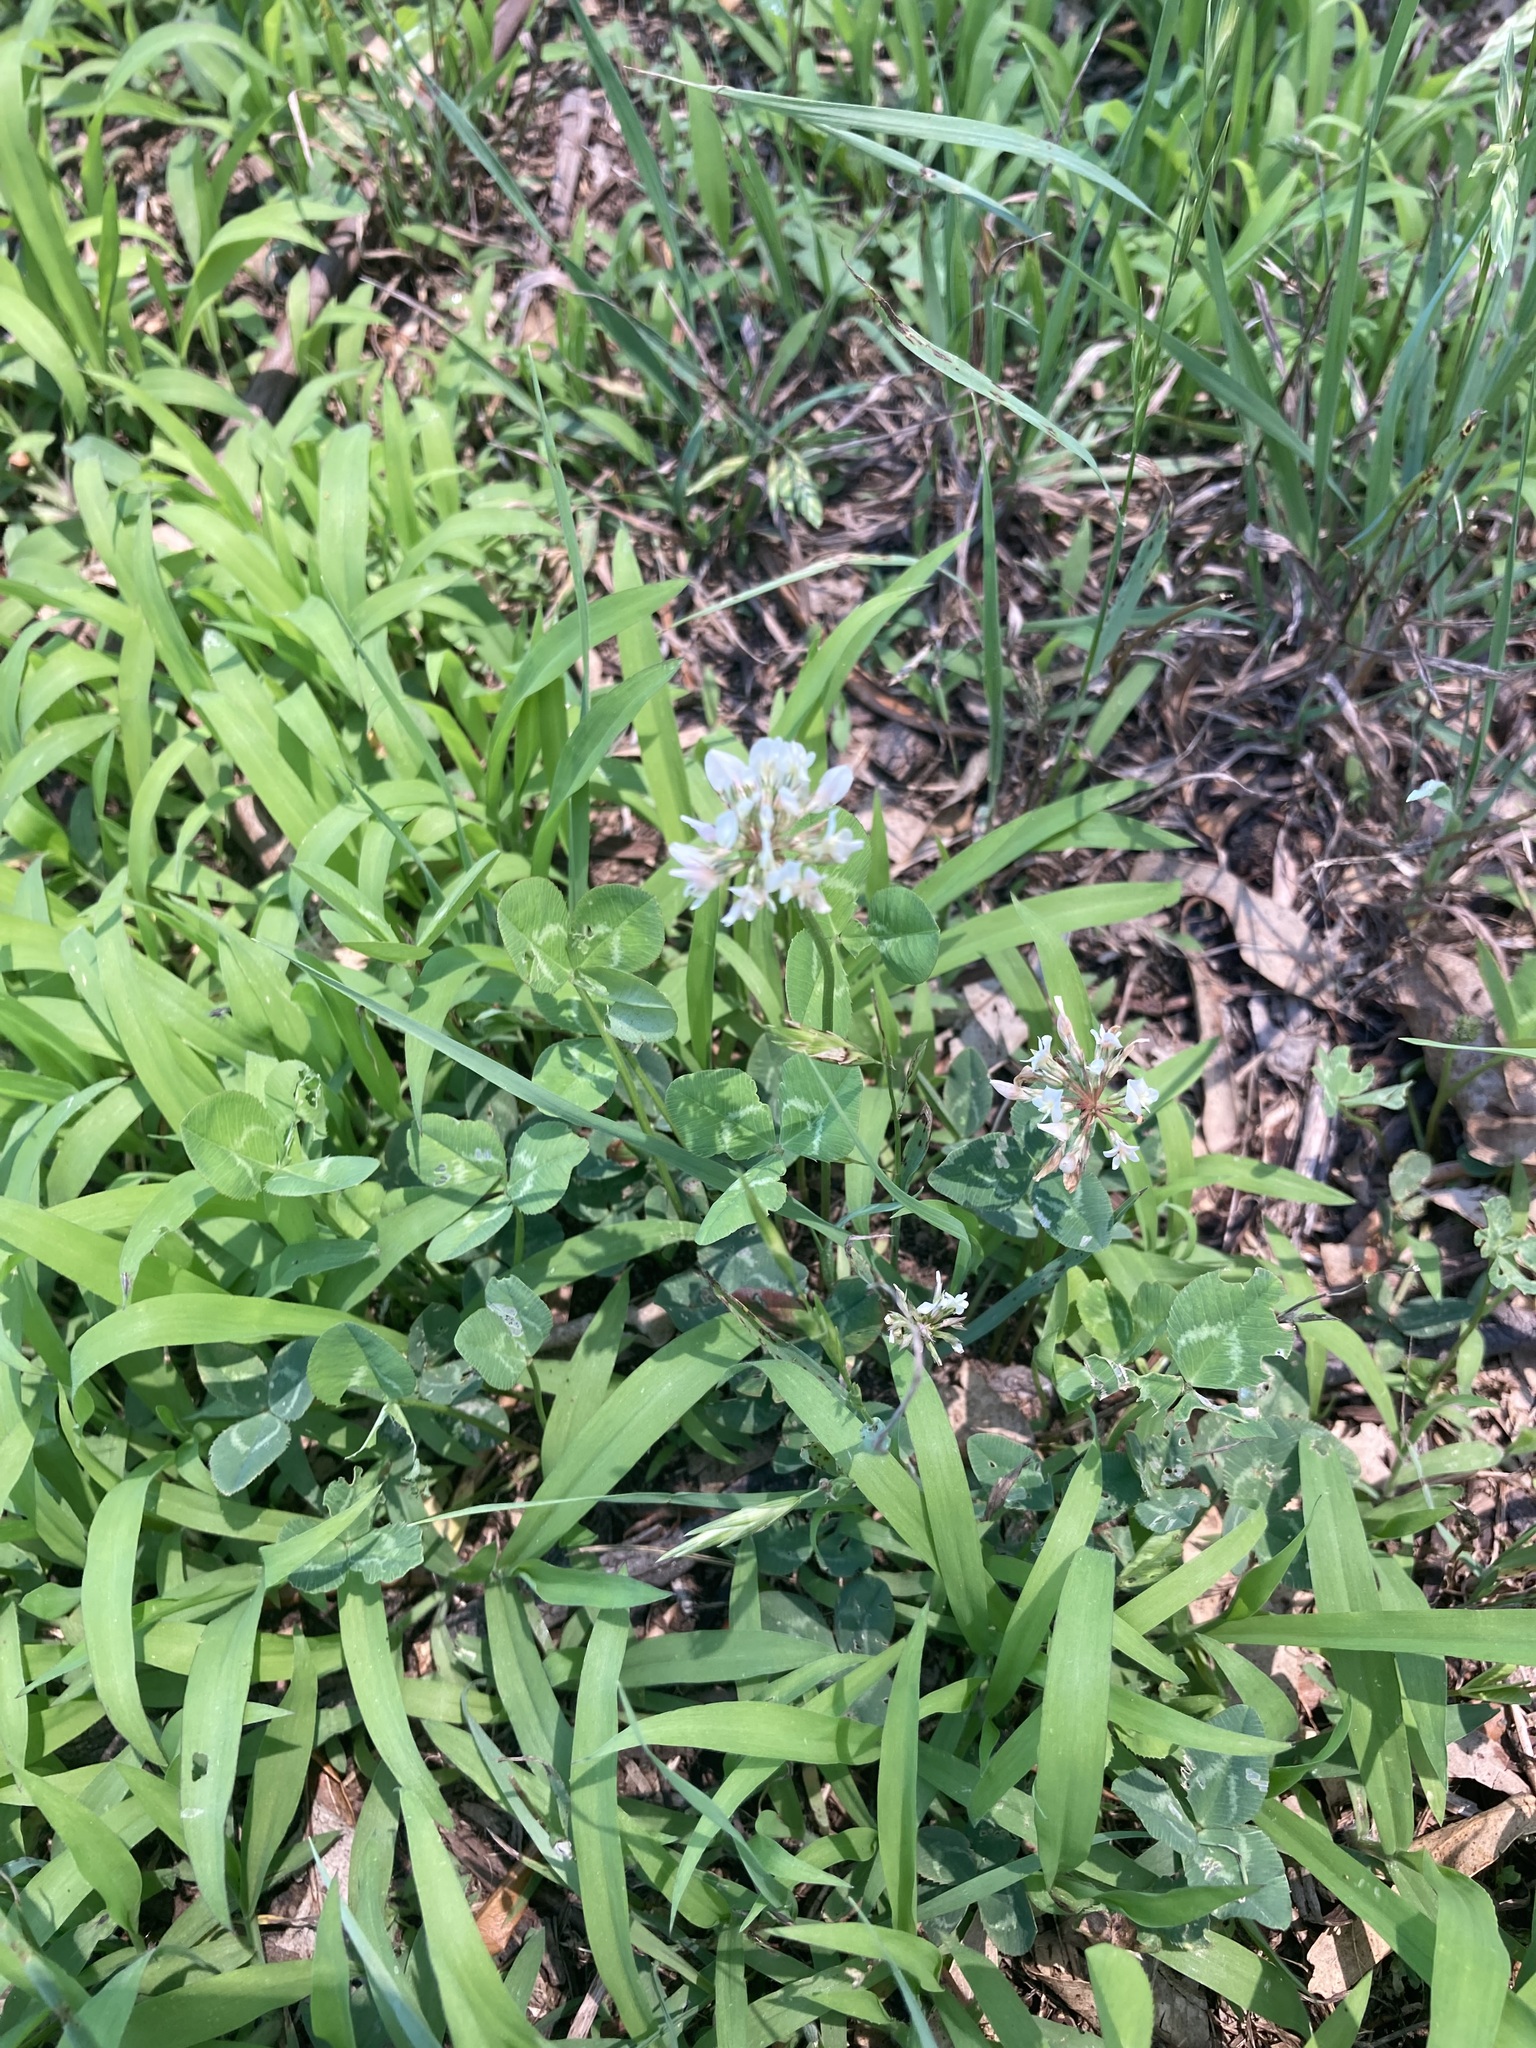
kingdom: Plantae
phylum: Tracheophyta
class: Magnoliopsida
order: Fabales
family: Fabaceae
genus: Trifolium
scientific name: Trifolium repens
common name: White clover
